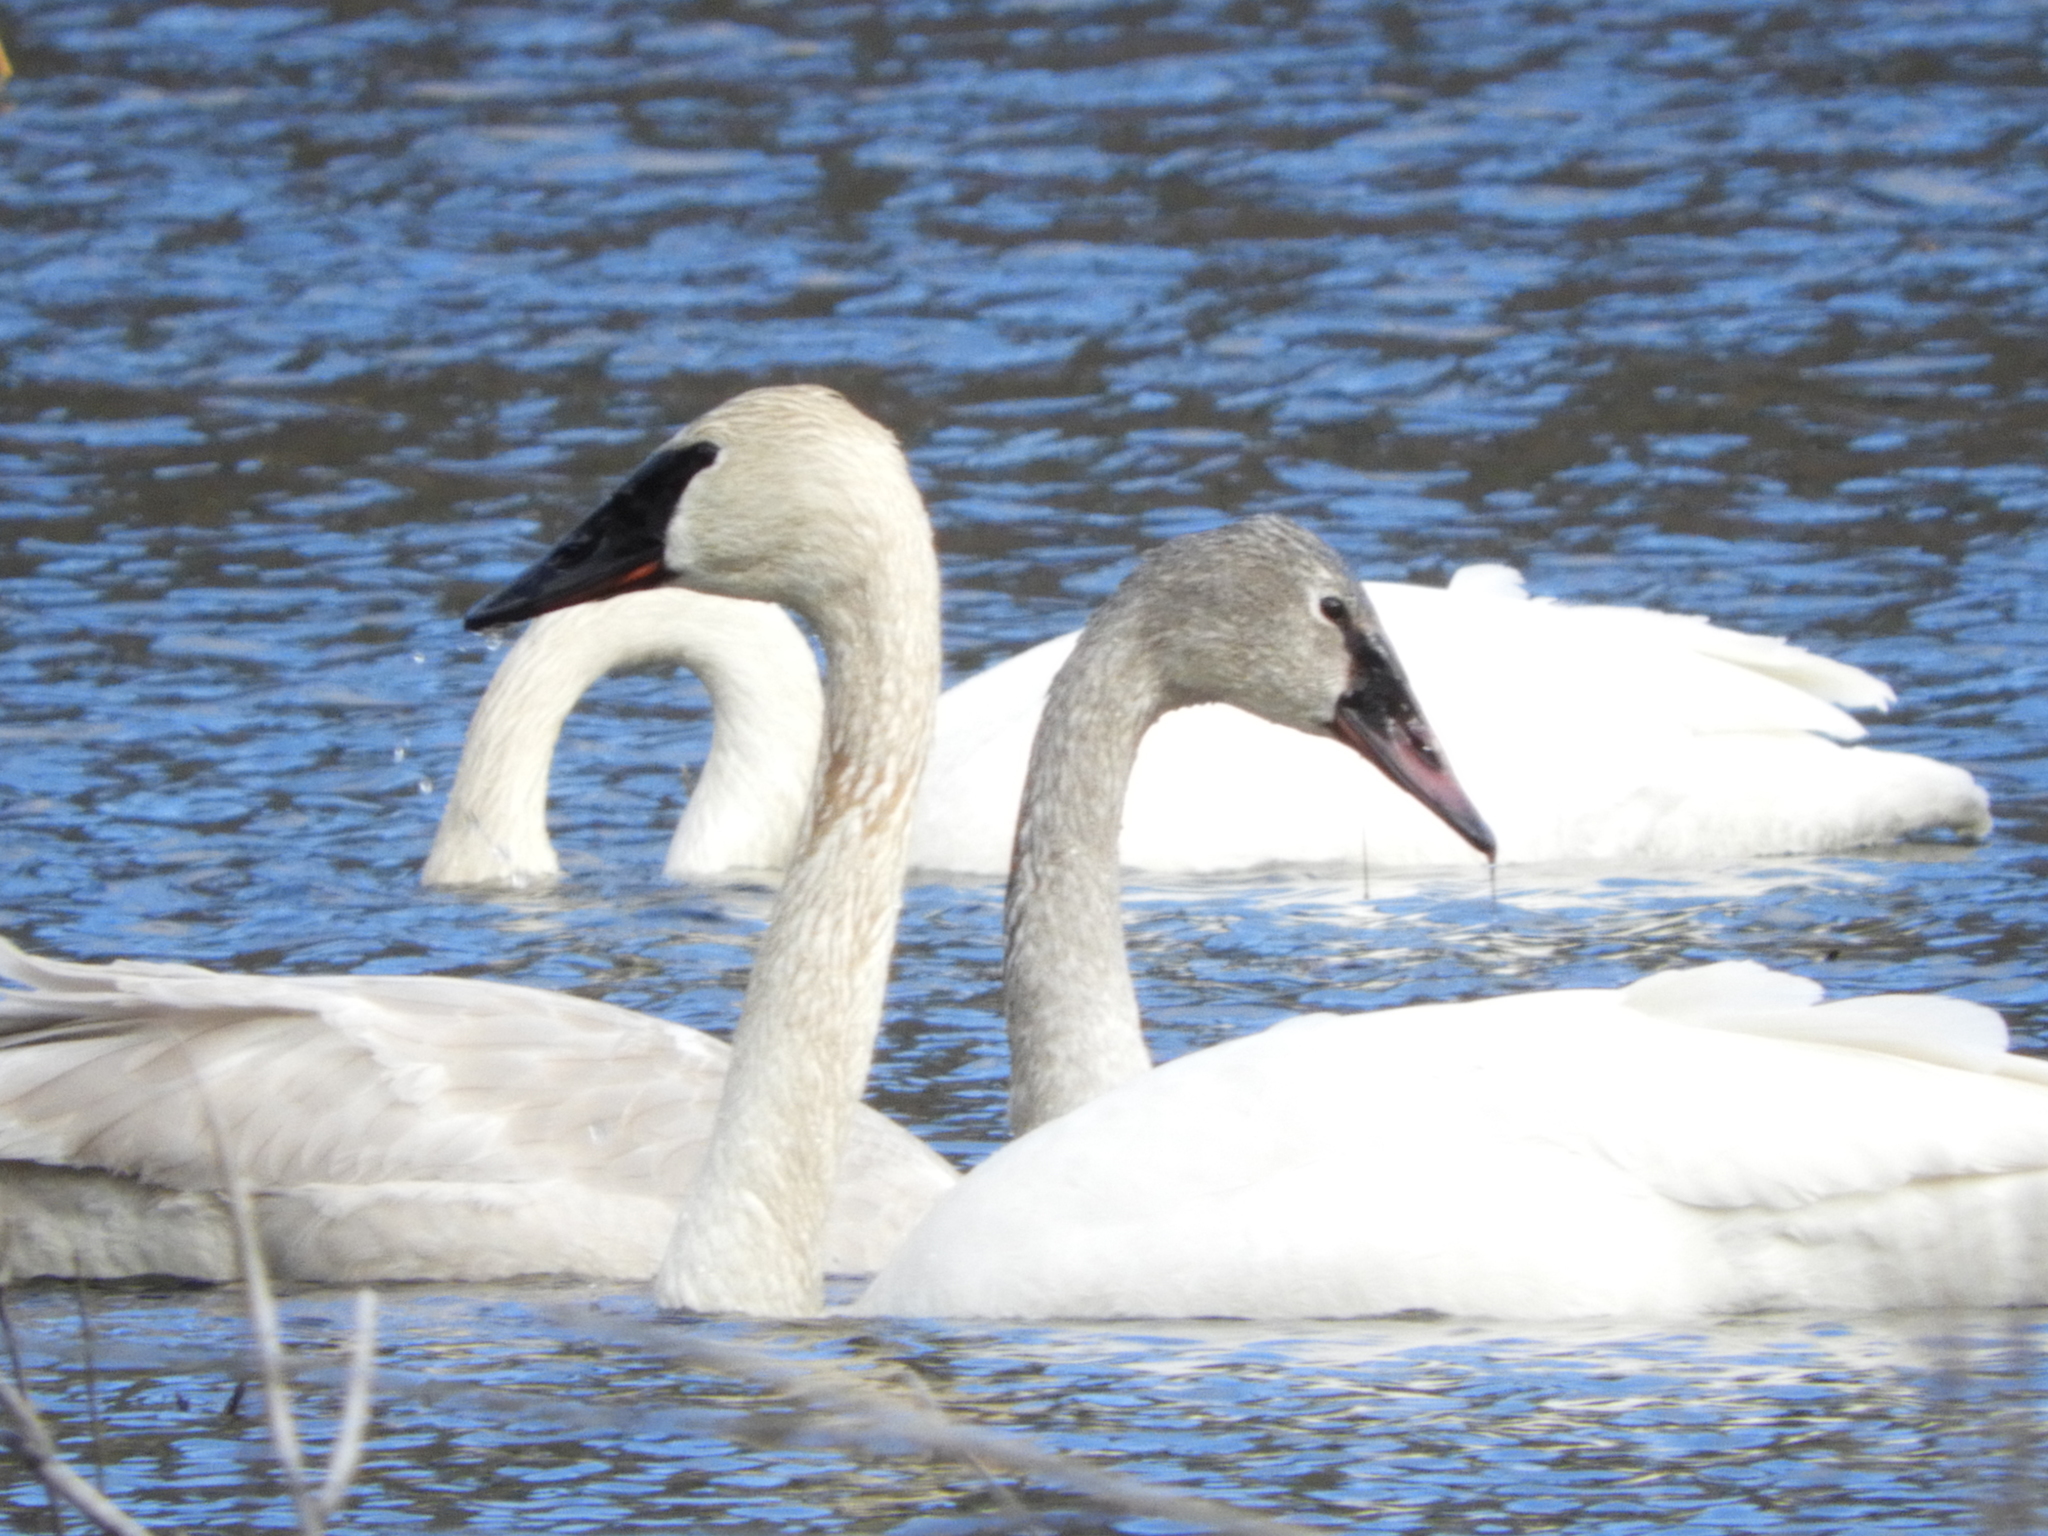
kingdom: Animalia
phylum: Chordata
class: Aves
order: Anseriformes
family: Anatidae
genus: Cygnus
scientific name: Cygnus buccinator
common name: Trumpeter swan
